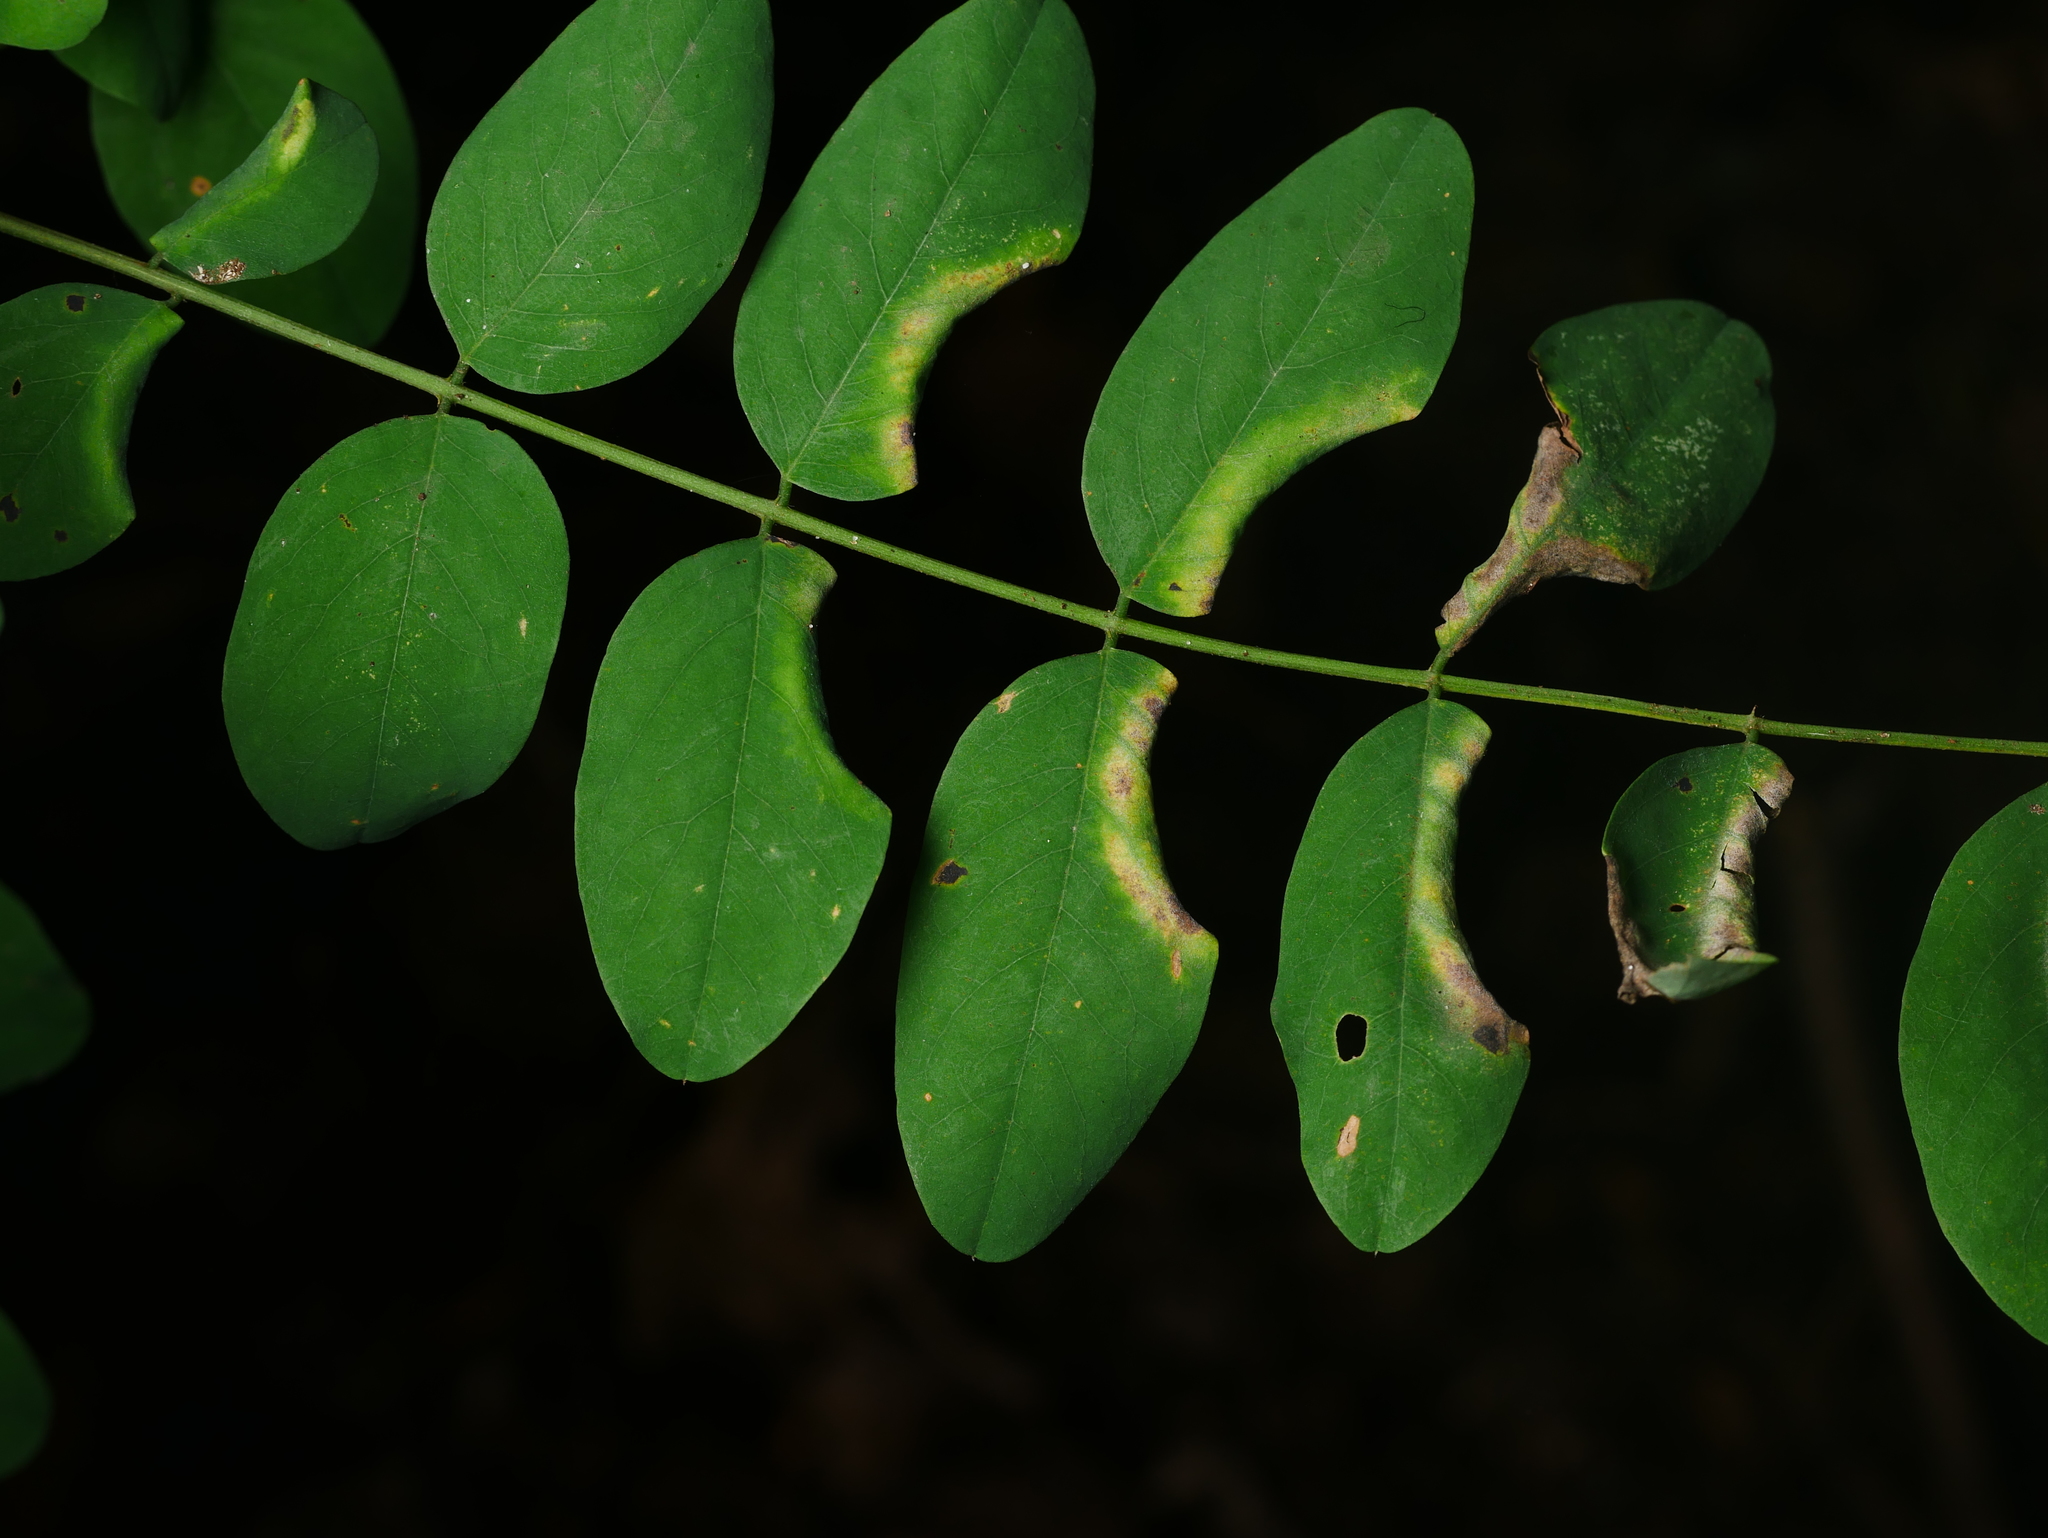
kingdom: Animalia
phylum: Arthropoda
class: Insecta
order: Diptera
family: Cecidomyiidae
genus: Obolodiplosis
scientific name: Obolodiplosis robiniae
